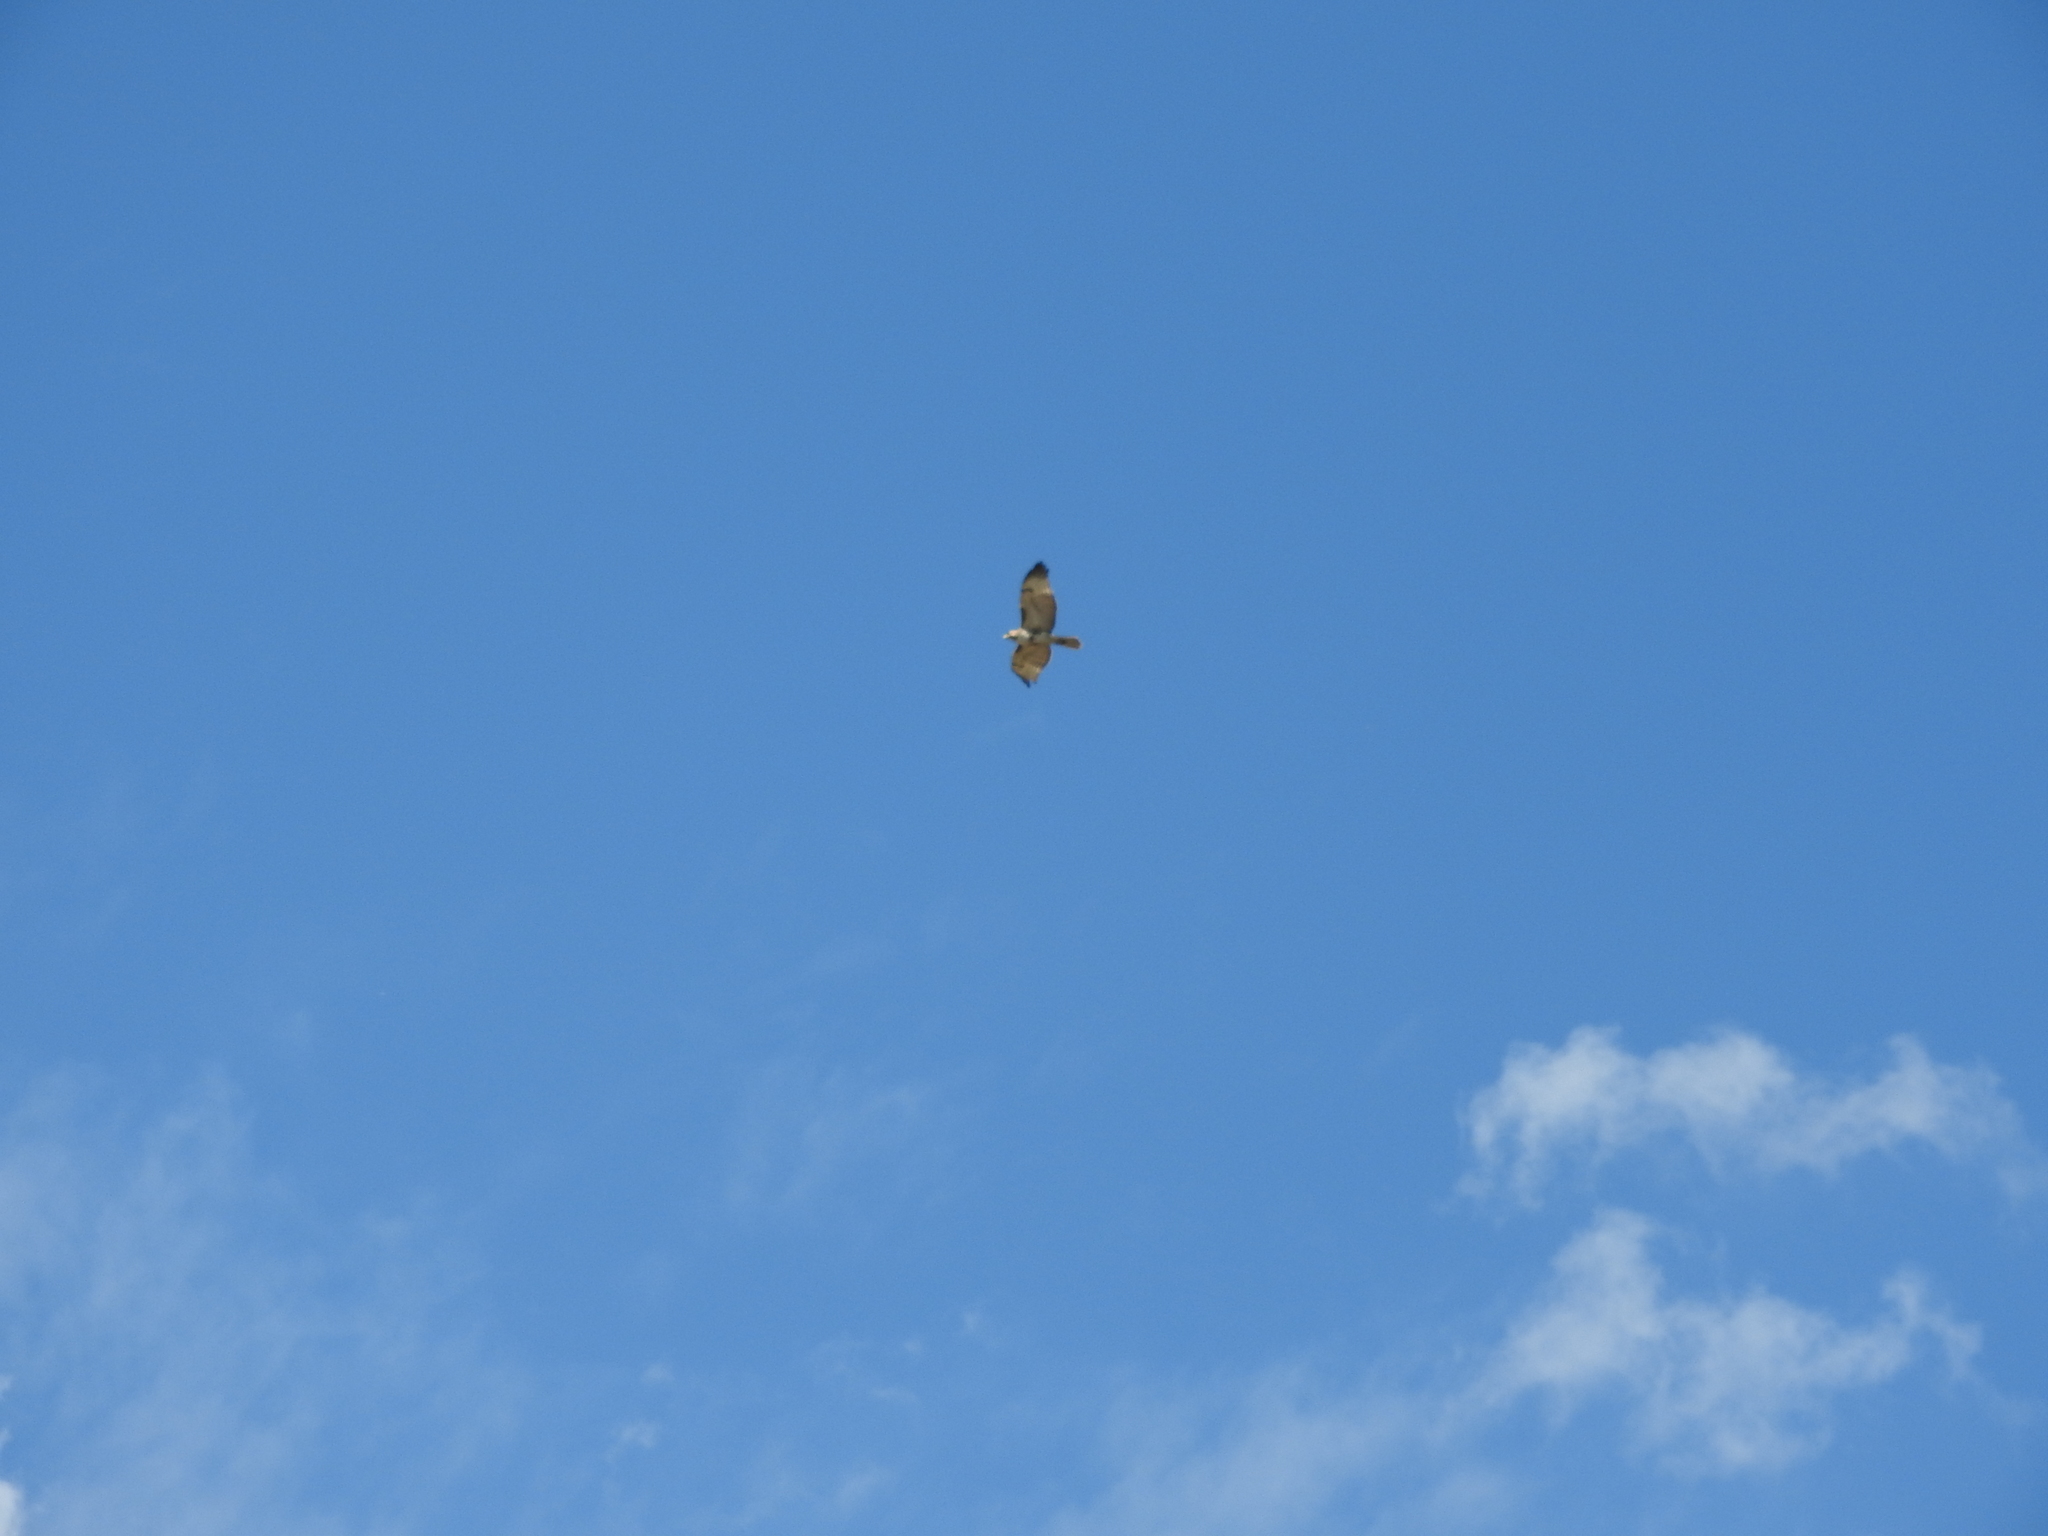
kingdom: Animalia
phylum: Chordata
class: Aves
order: Accipitriformes
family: Accipitridae
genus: Buteo
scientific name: Buteo jamaicensis
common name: Red-tailed hawk
